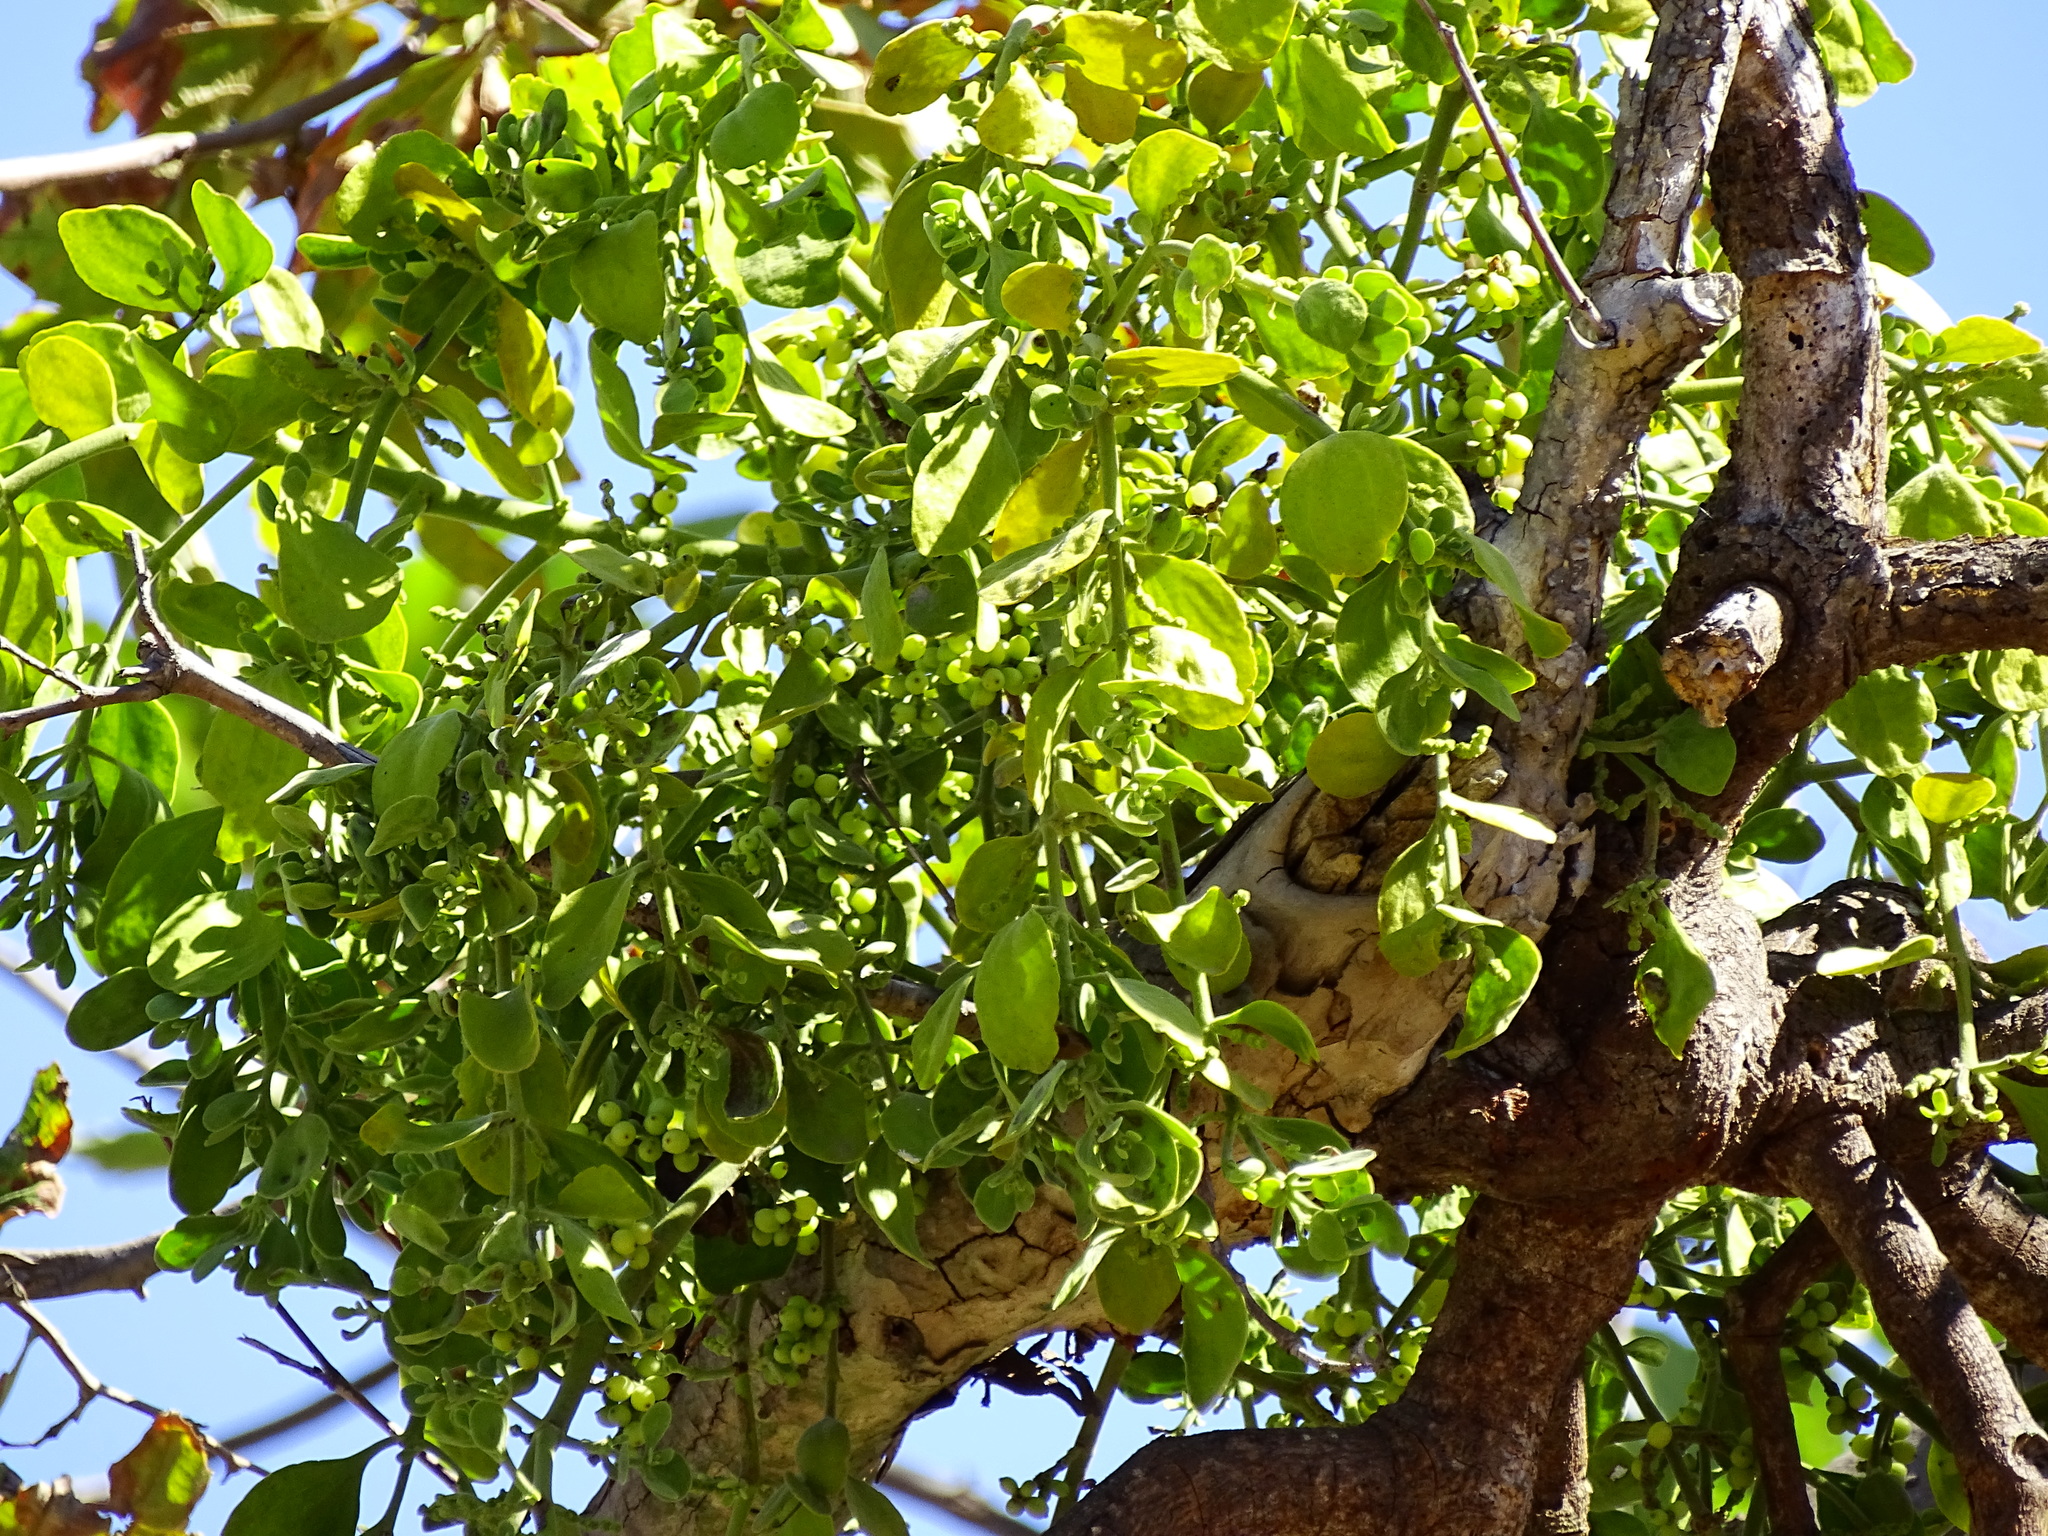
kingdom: Plantae
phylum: Tracheophyta
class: Magnoliopsida
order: Santalales
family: Viscaceae
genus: Phoradendron
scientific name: Phoradendron
